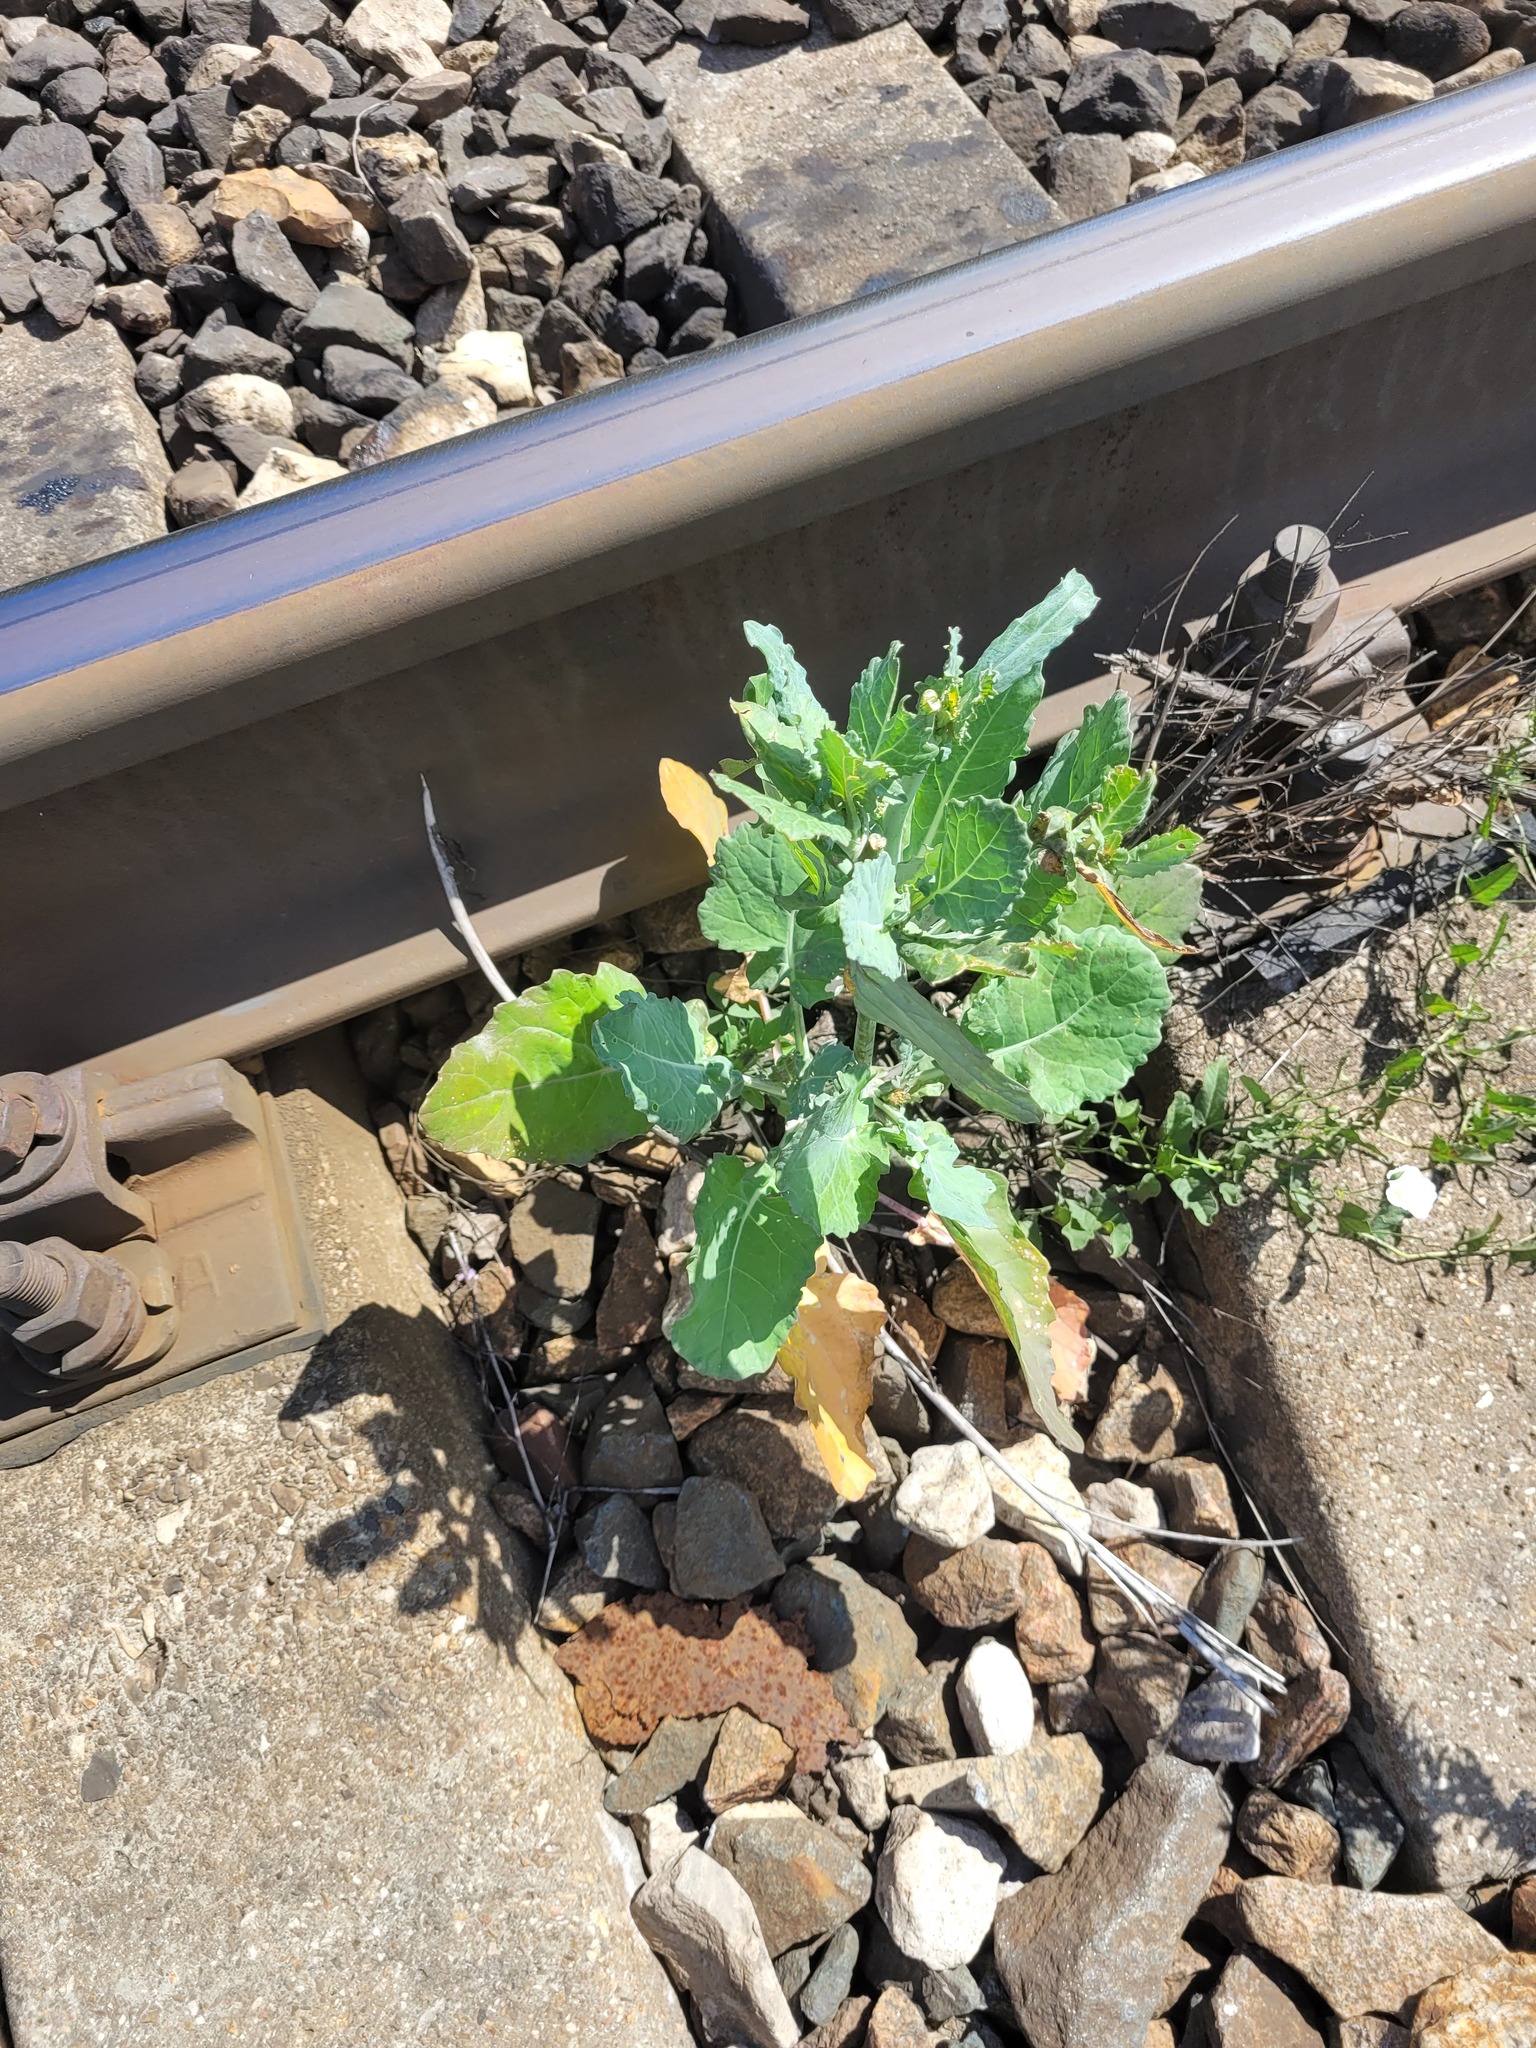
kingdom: Plantae
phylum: Tracheophyta
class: Magnoliopsida
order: Brassicales
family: Brassicaceae
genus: Brassica
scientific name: Brassica napus
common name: Rape
